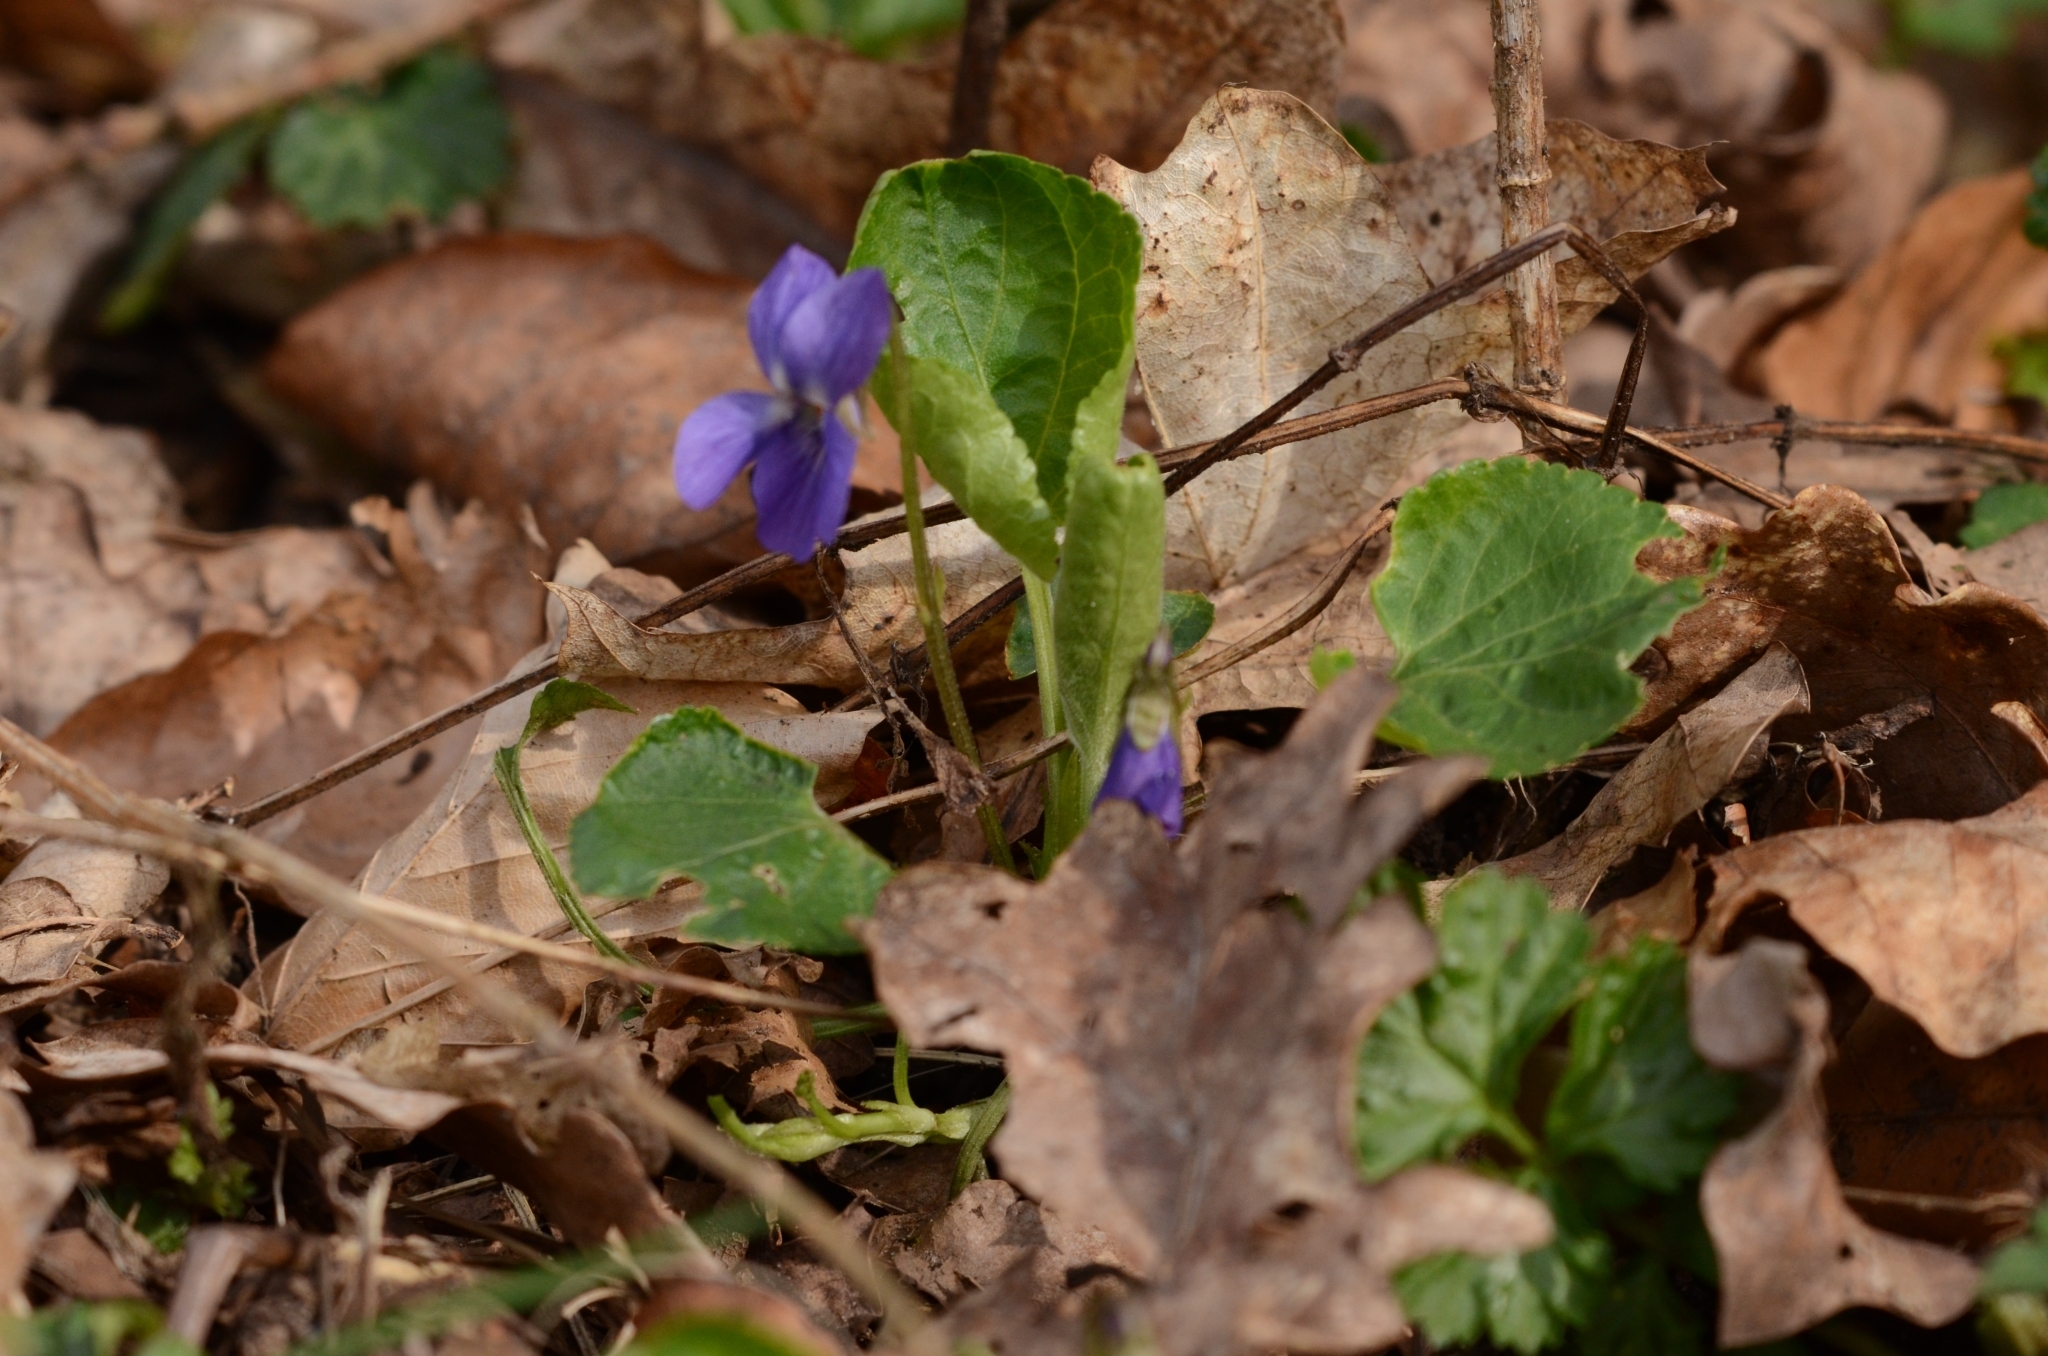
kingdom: Plantae
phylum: Tracheophyta
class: Magnoliopsida
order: Malpighiales
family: Violaceae
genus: Viola
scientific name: Viola odorata
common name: Sweet violet
